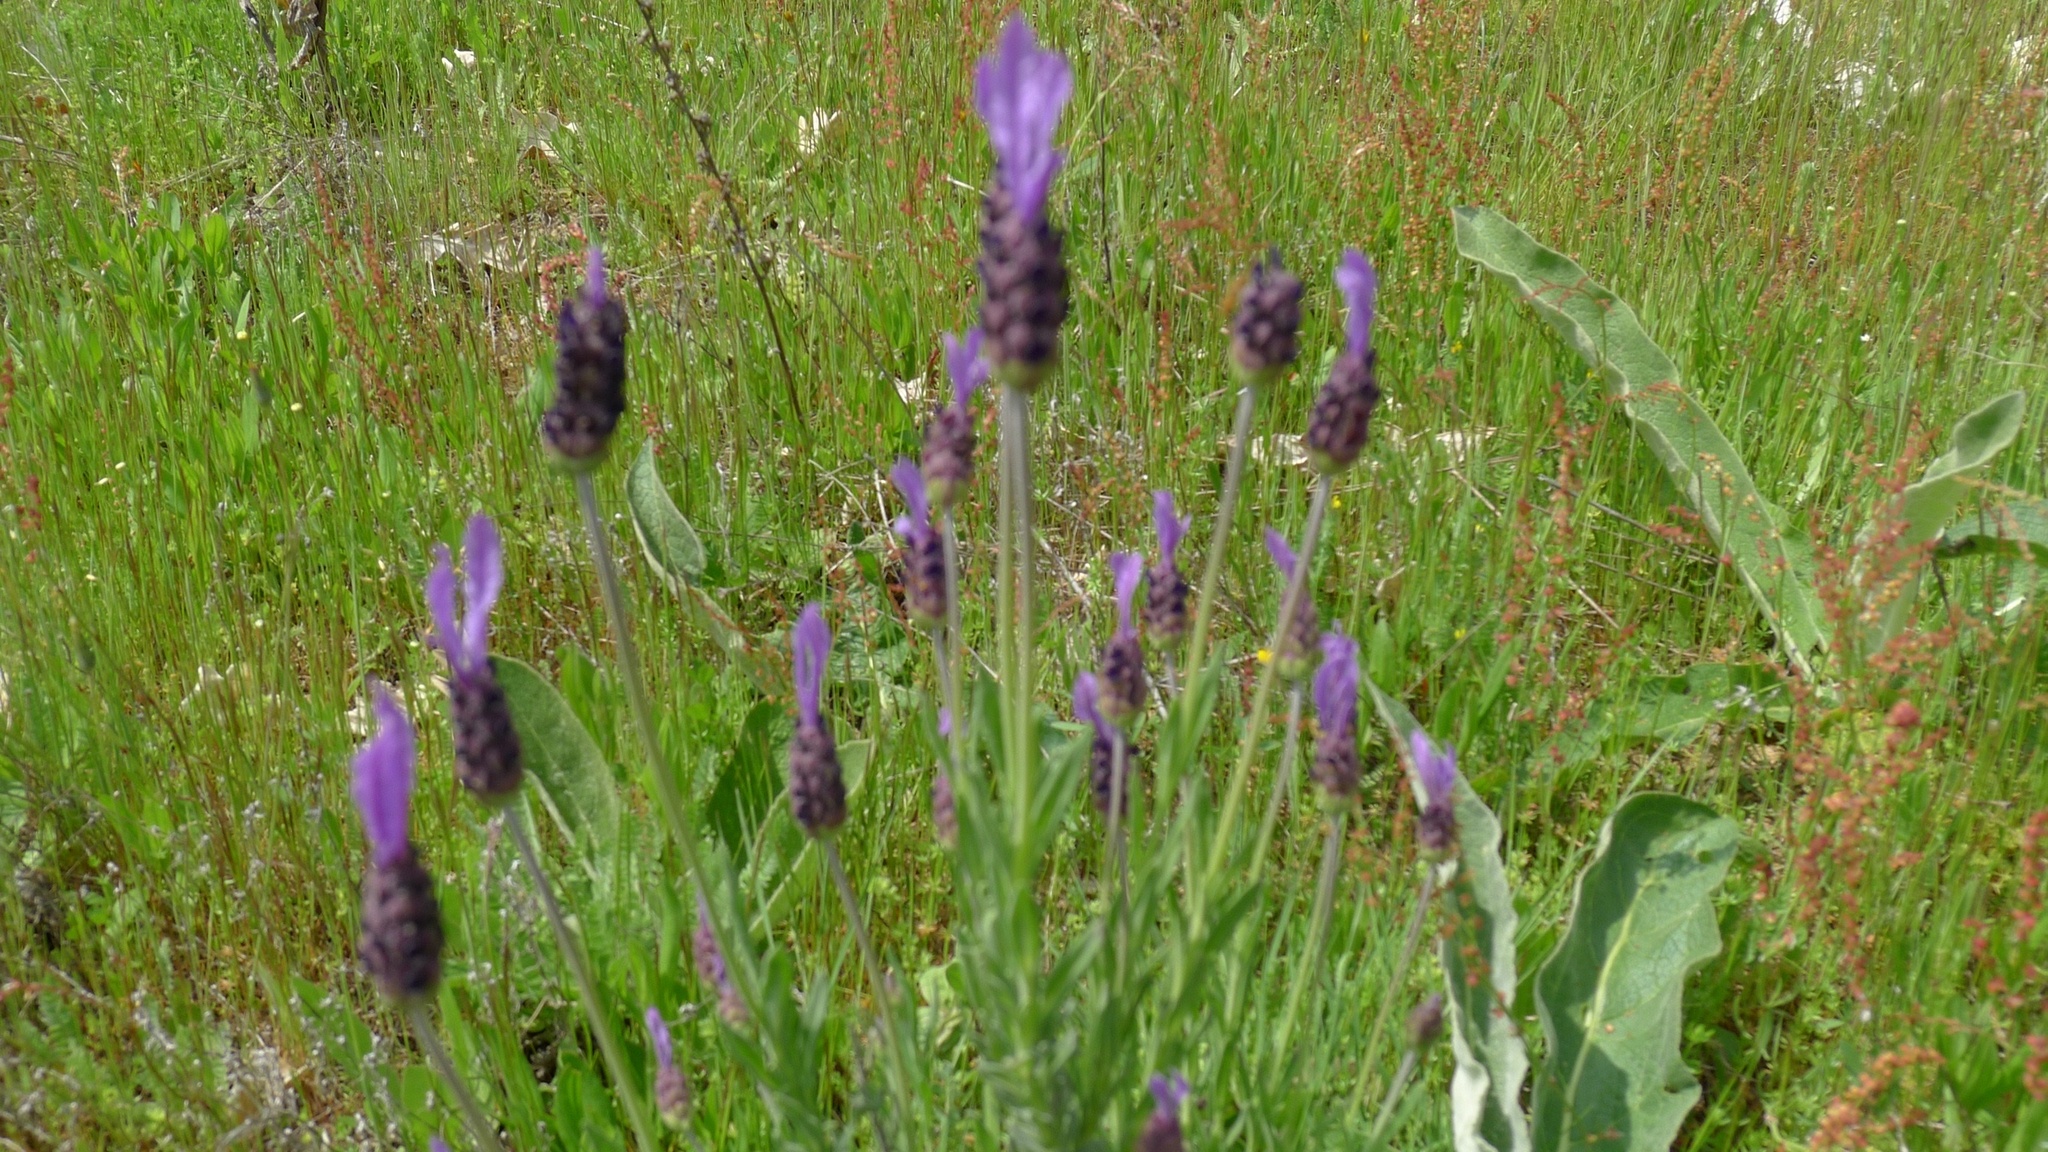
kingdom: Plantae
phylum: Tracheophyta
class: Magnoliopsida
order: Lamiales
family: Lamiaceae
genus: Lavandula
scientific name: Lavandula pedunculata
